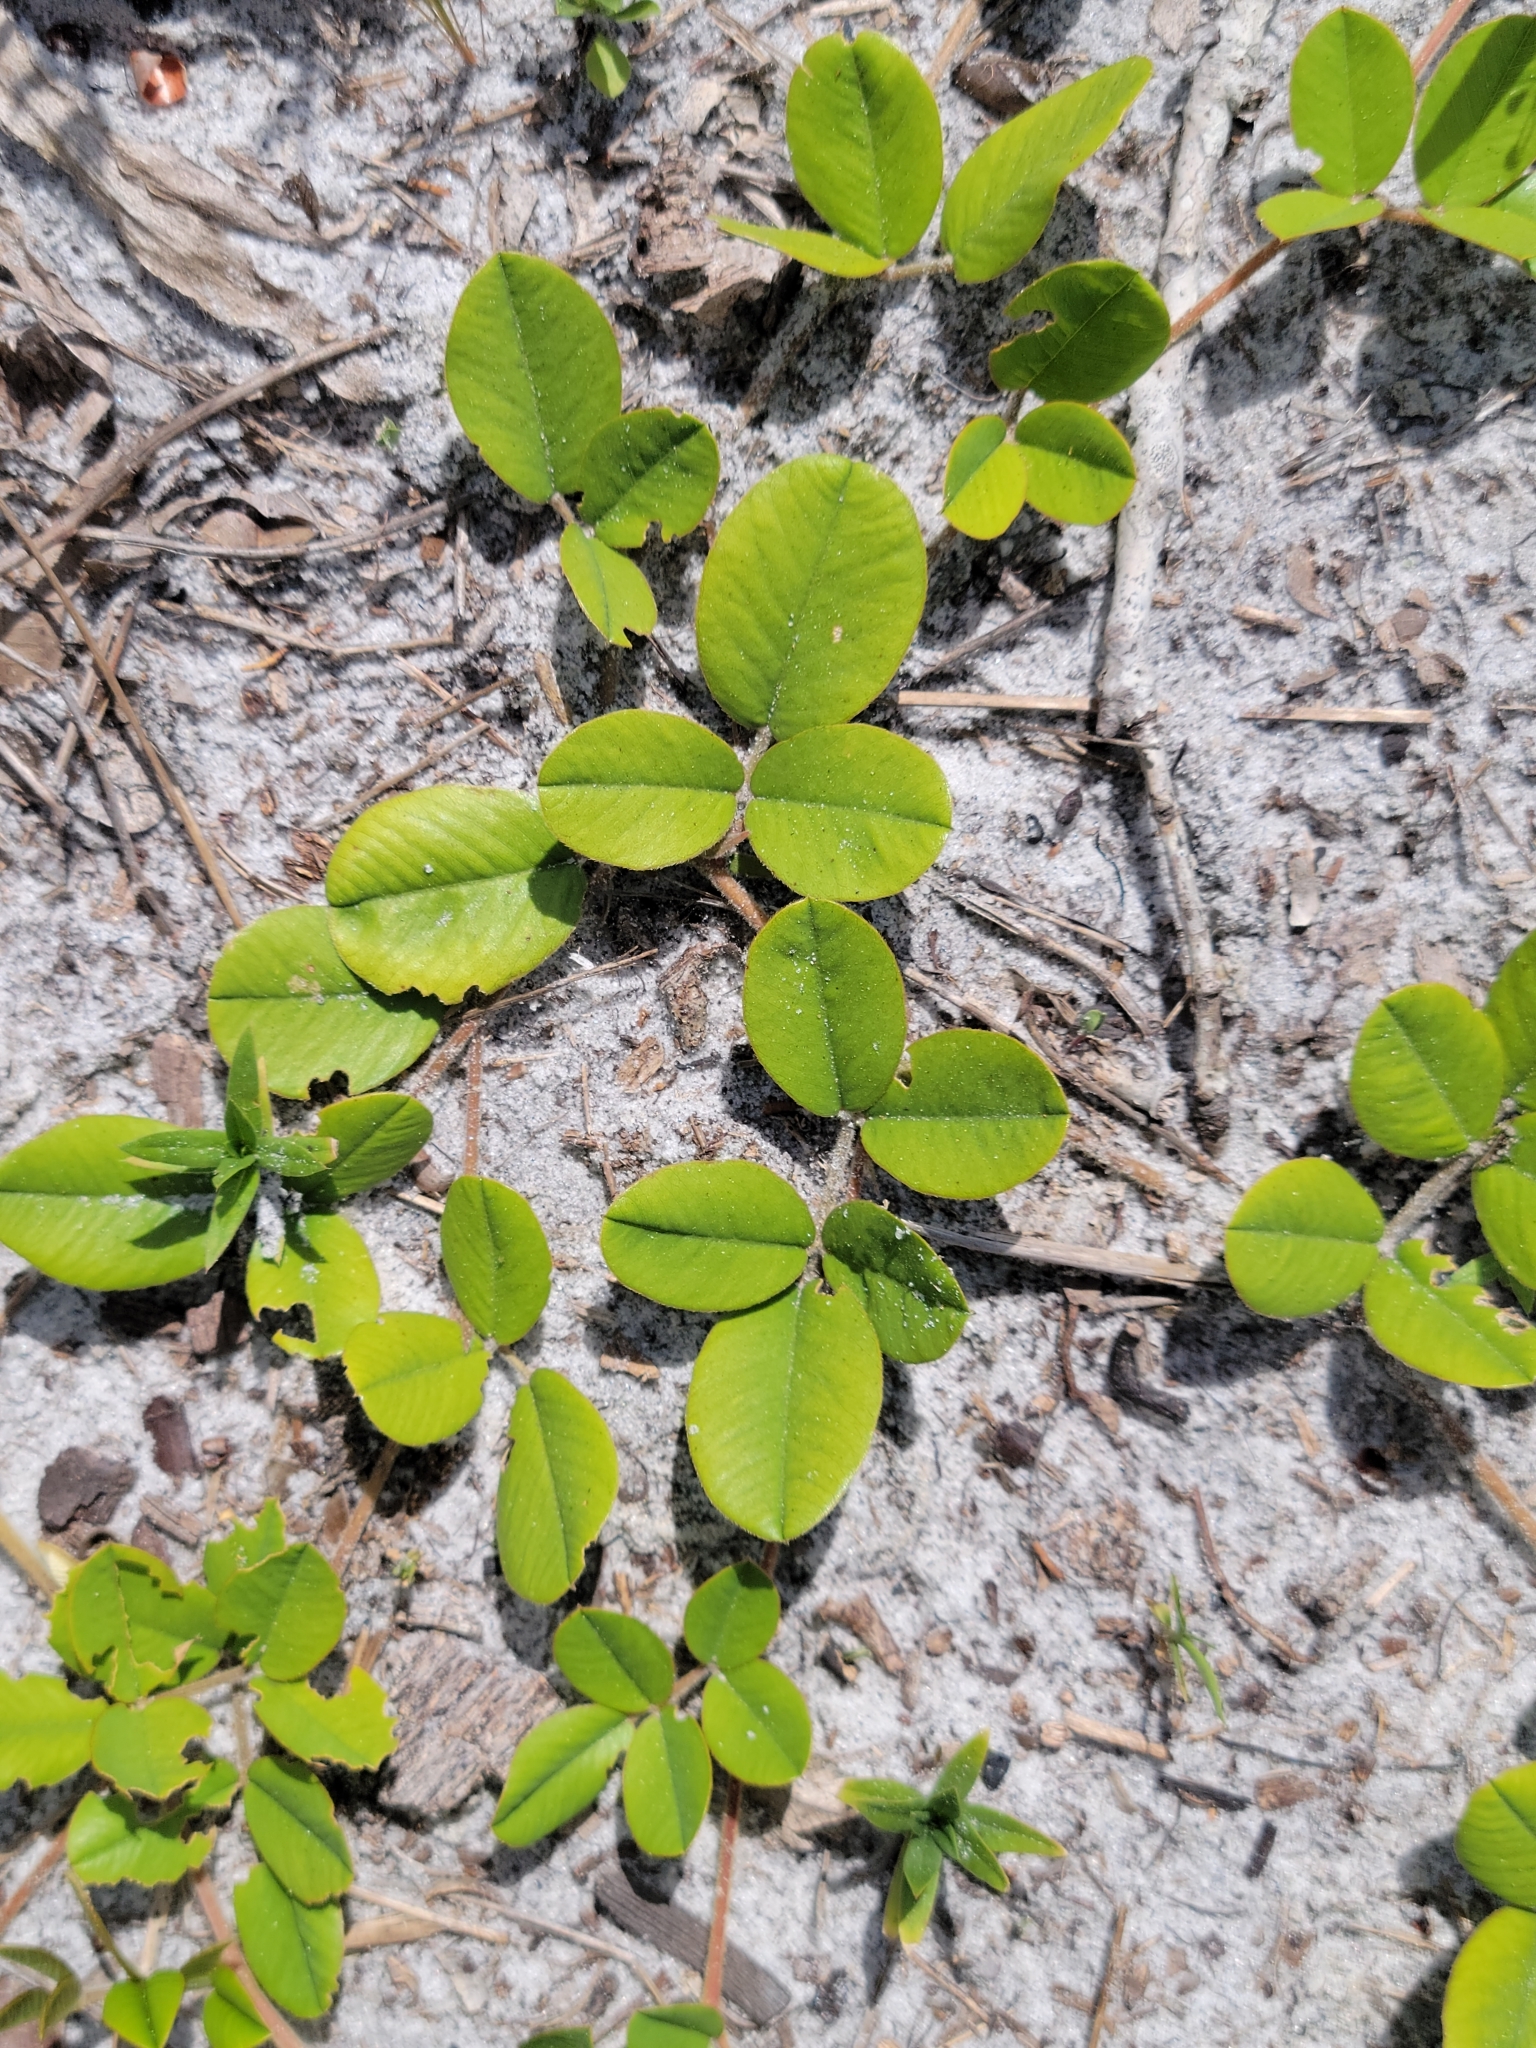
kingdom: Plantae
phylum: Tracheophyta
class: Magnoliopsida
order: Fabales
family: Fabaceae
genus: Tephrosia
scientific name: Tephrosia chrysophylla
